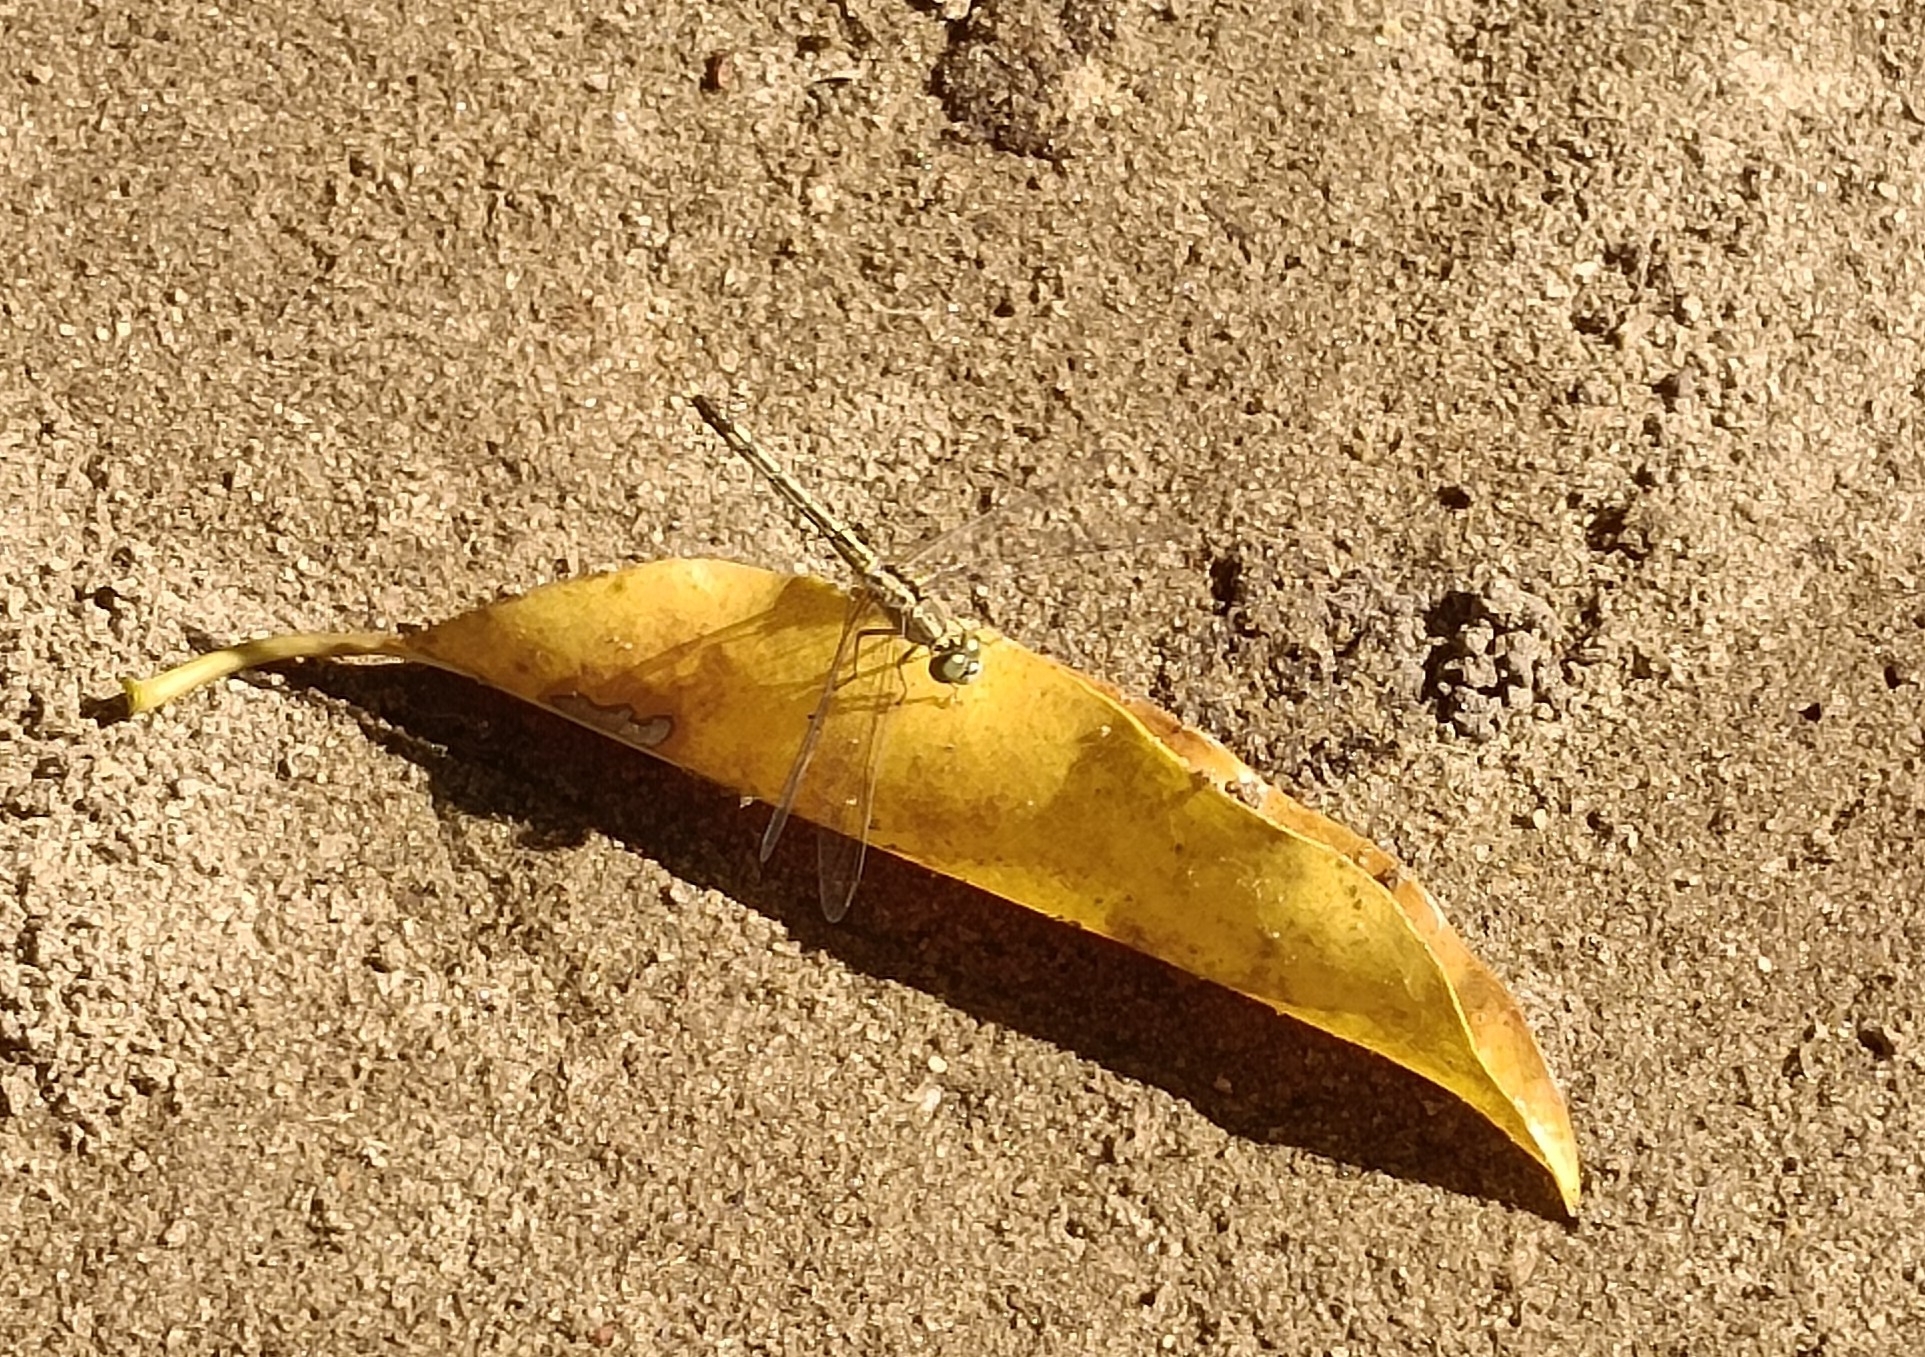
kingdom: Animalia
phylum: Arthropoda
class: Insecta
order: Odonata
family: Libellulidae
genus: Diplacodes
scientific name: Diplacodes trivialis
